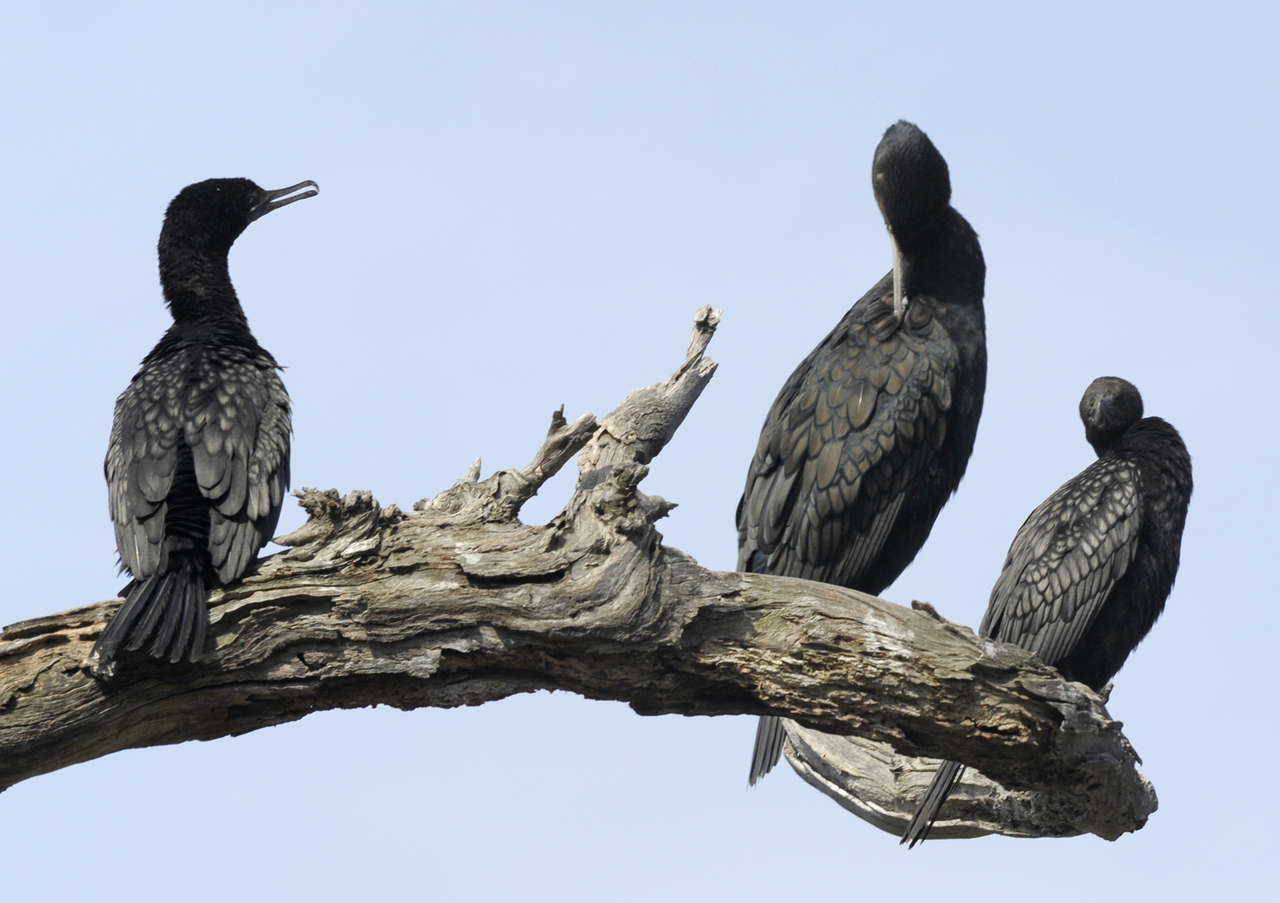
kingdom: Animalia
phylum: Chordata
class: Aves
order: Suliformes
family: Phalacrocoracidae
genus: Phalacrocorax
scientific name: Phalacrocorax sulcirostris
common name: Little black cormorant
